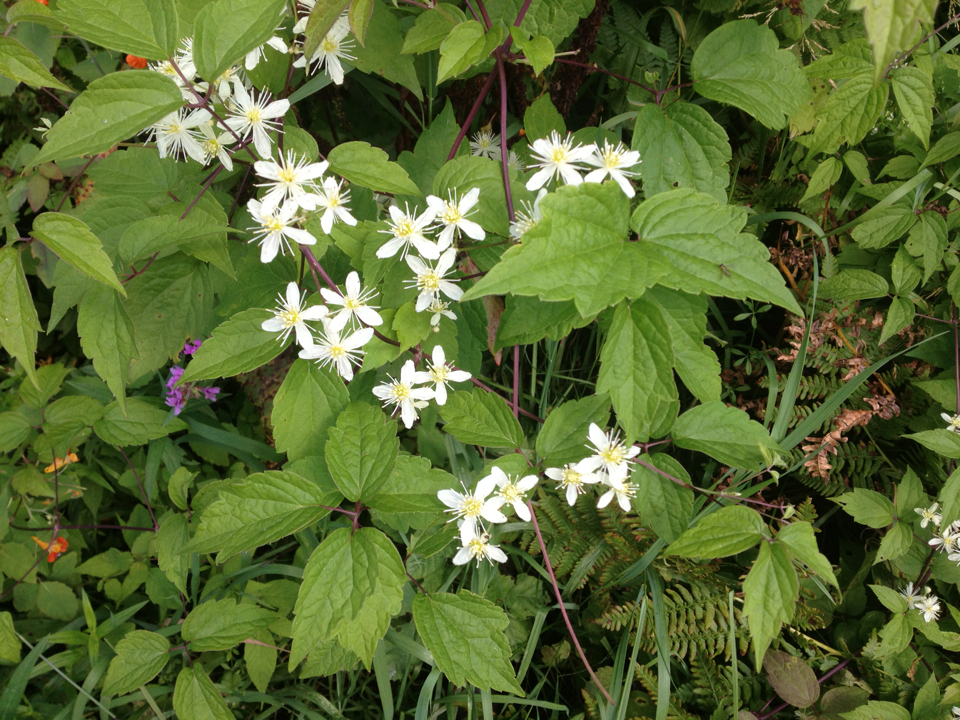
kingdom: Plantae
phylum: Tracheophyta
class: Magnoliopsida
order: Ranunculales
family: Ranunculaceae
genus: Clematis
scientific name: Clematis virginiana
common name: Virgin's-bower
